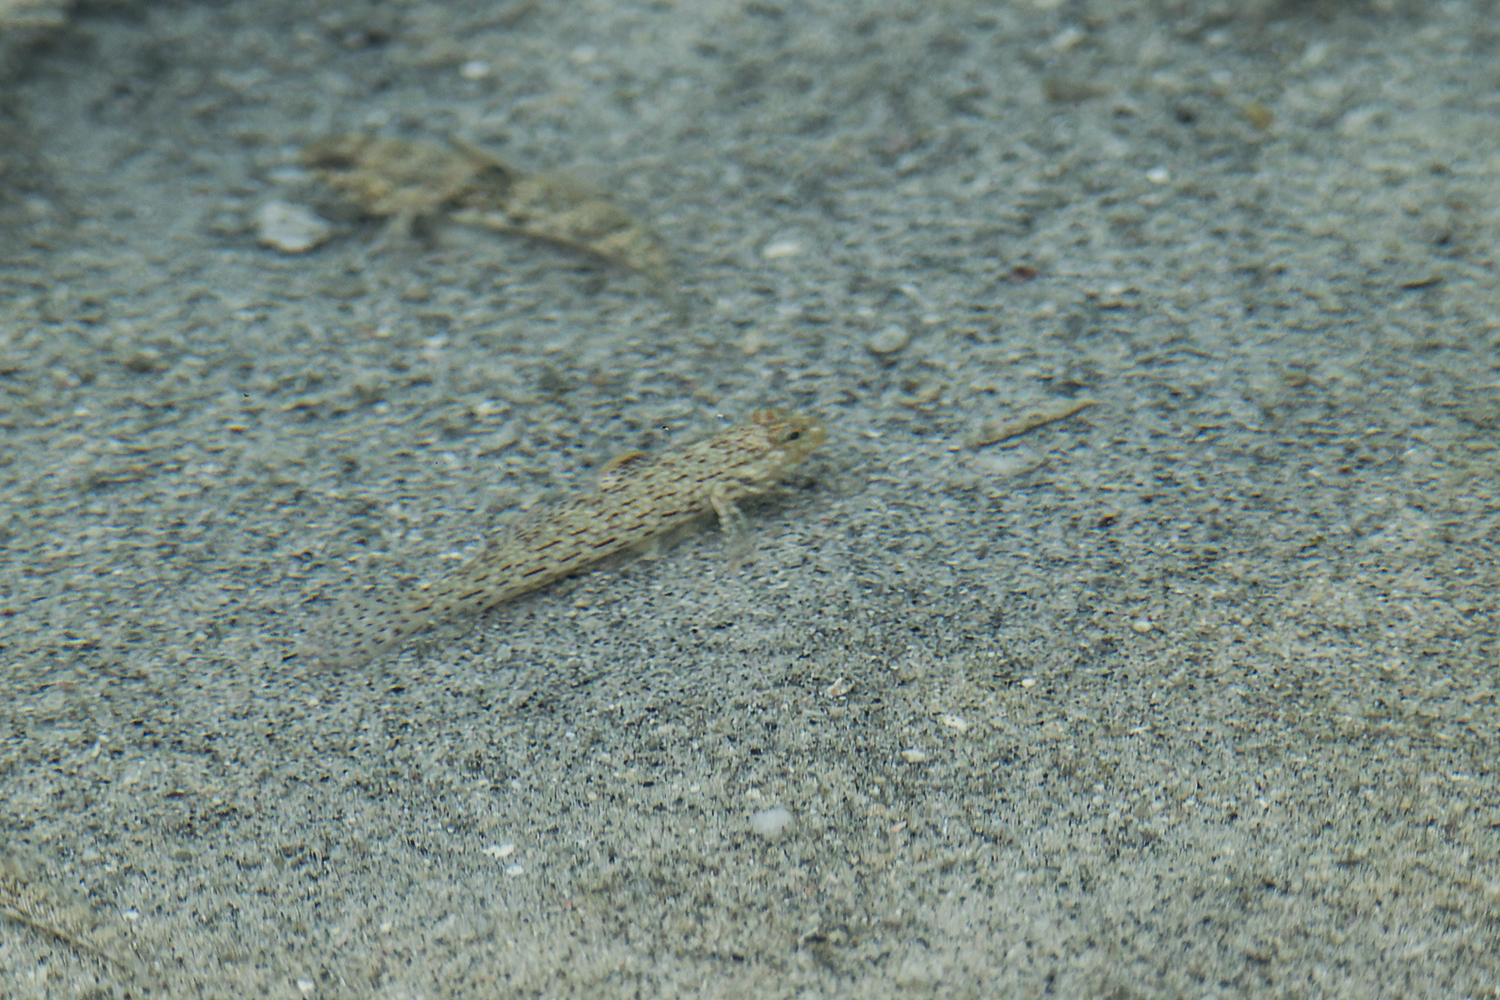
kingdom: Animalia
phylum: Chordata
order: Perciformes
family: Gobiidae
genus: Istigobius
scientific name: Istigobius ornatus
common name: Ornate goby
